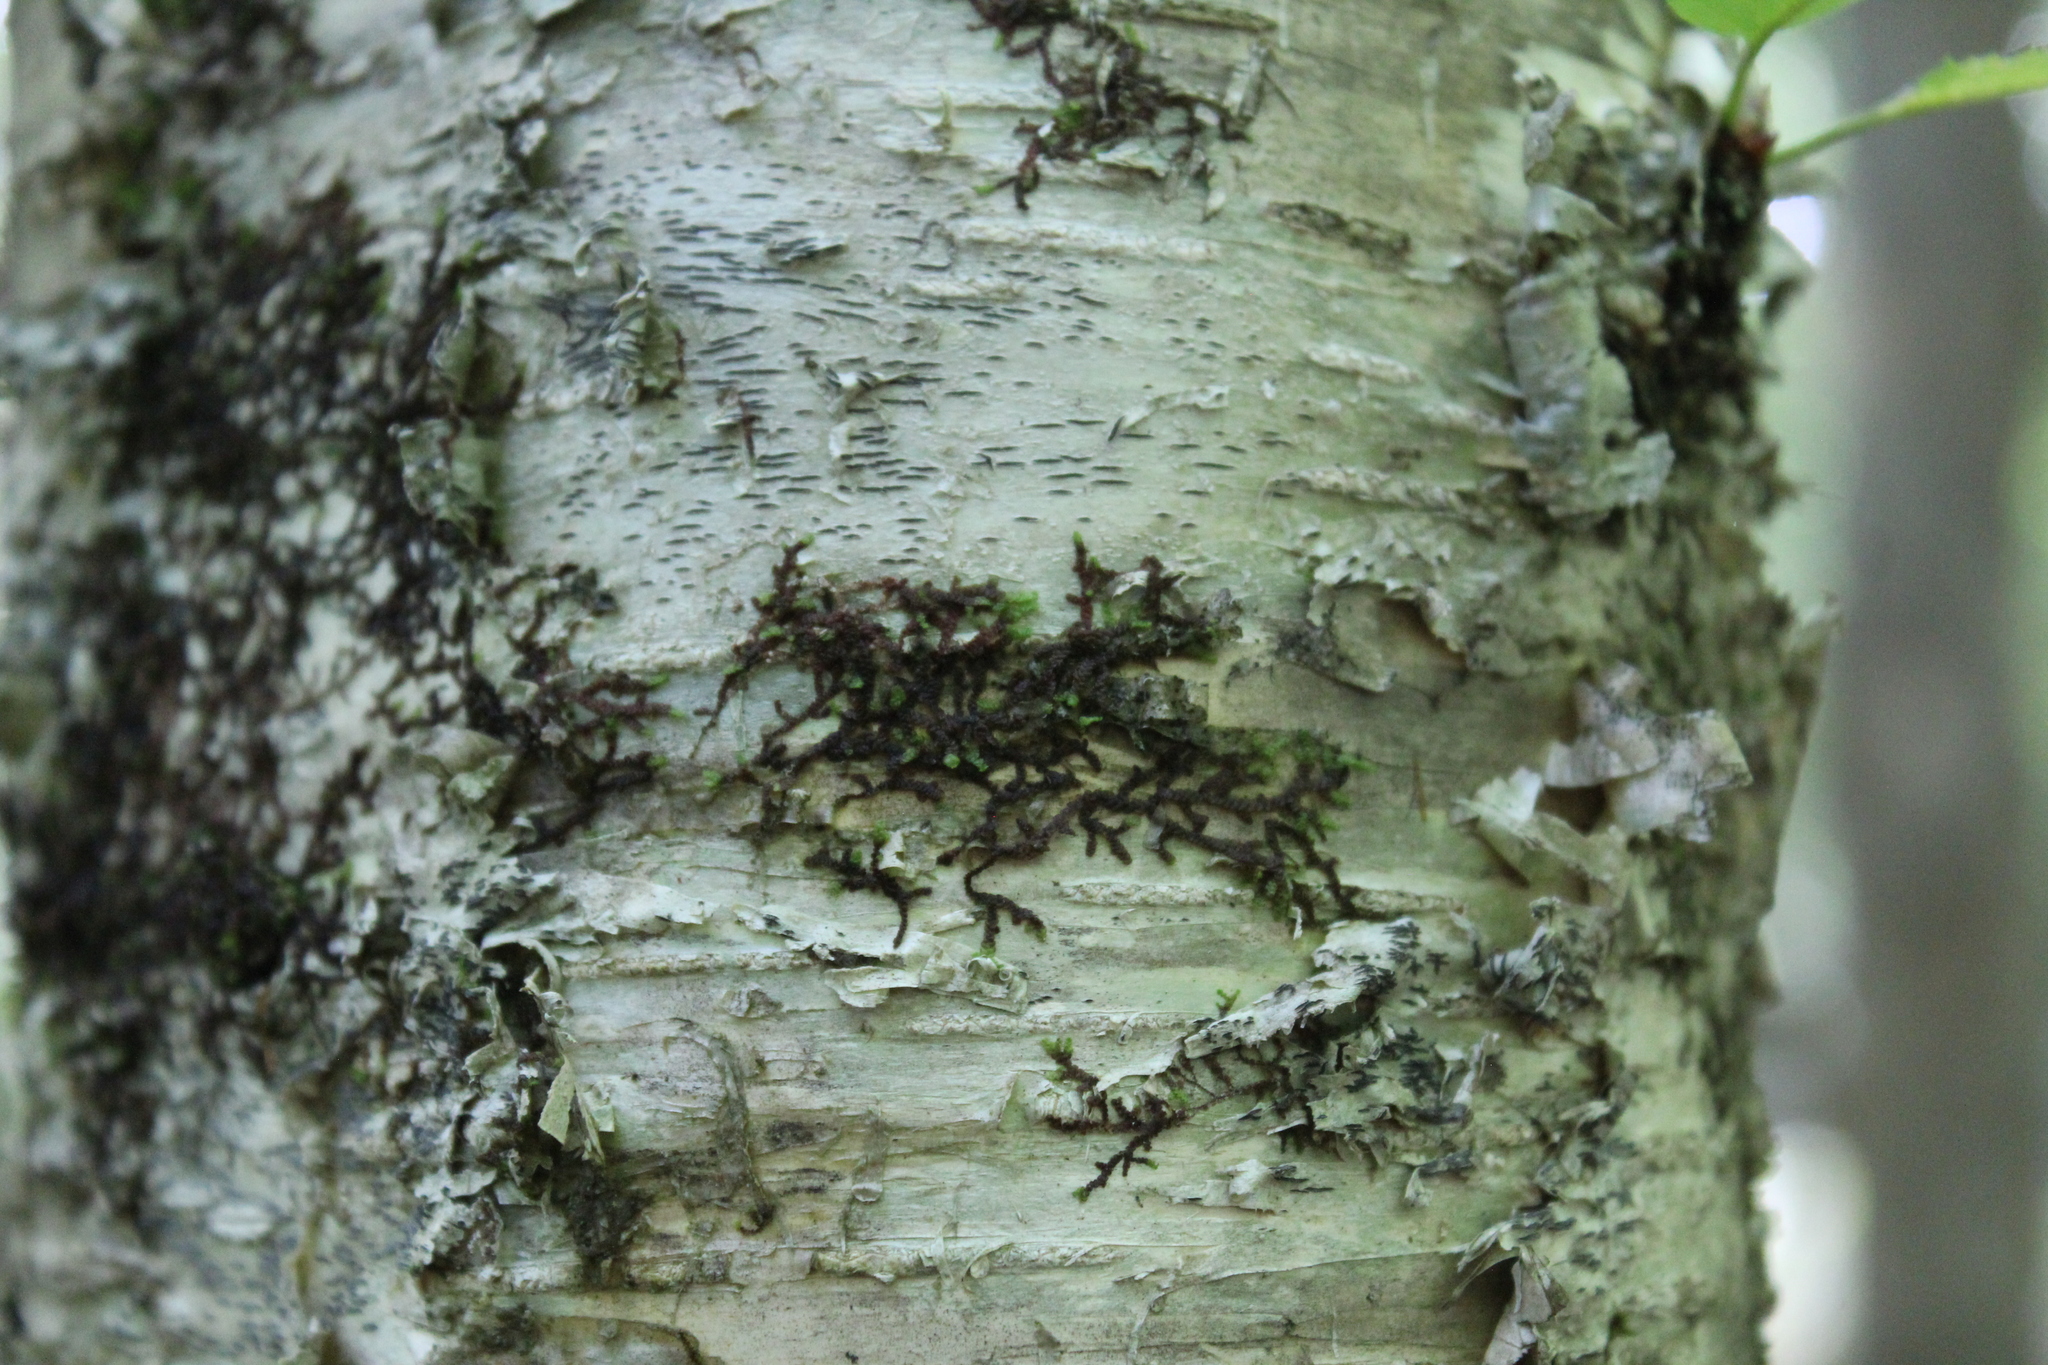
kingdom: Plantae
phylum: Marchantiophyta
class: Jungermanniopsida
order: Porellales
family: Frullaniaceae
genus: Frullania
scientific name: Frullania eboracensis
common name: New york scalewort
